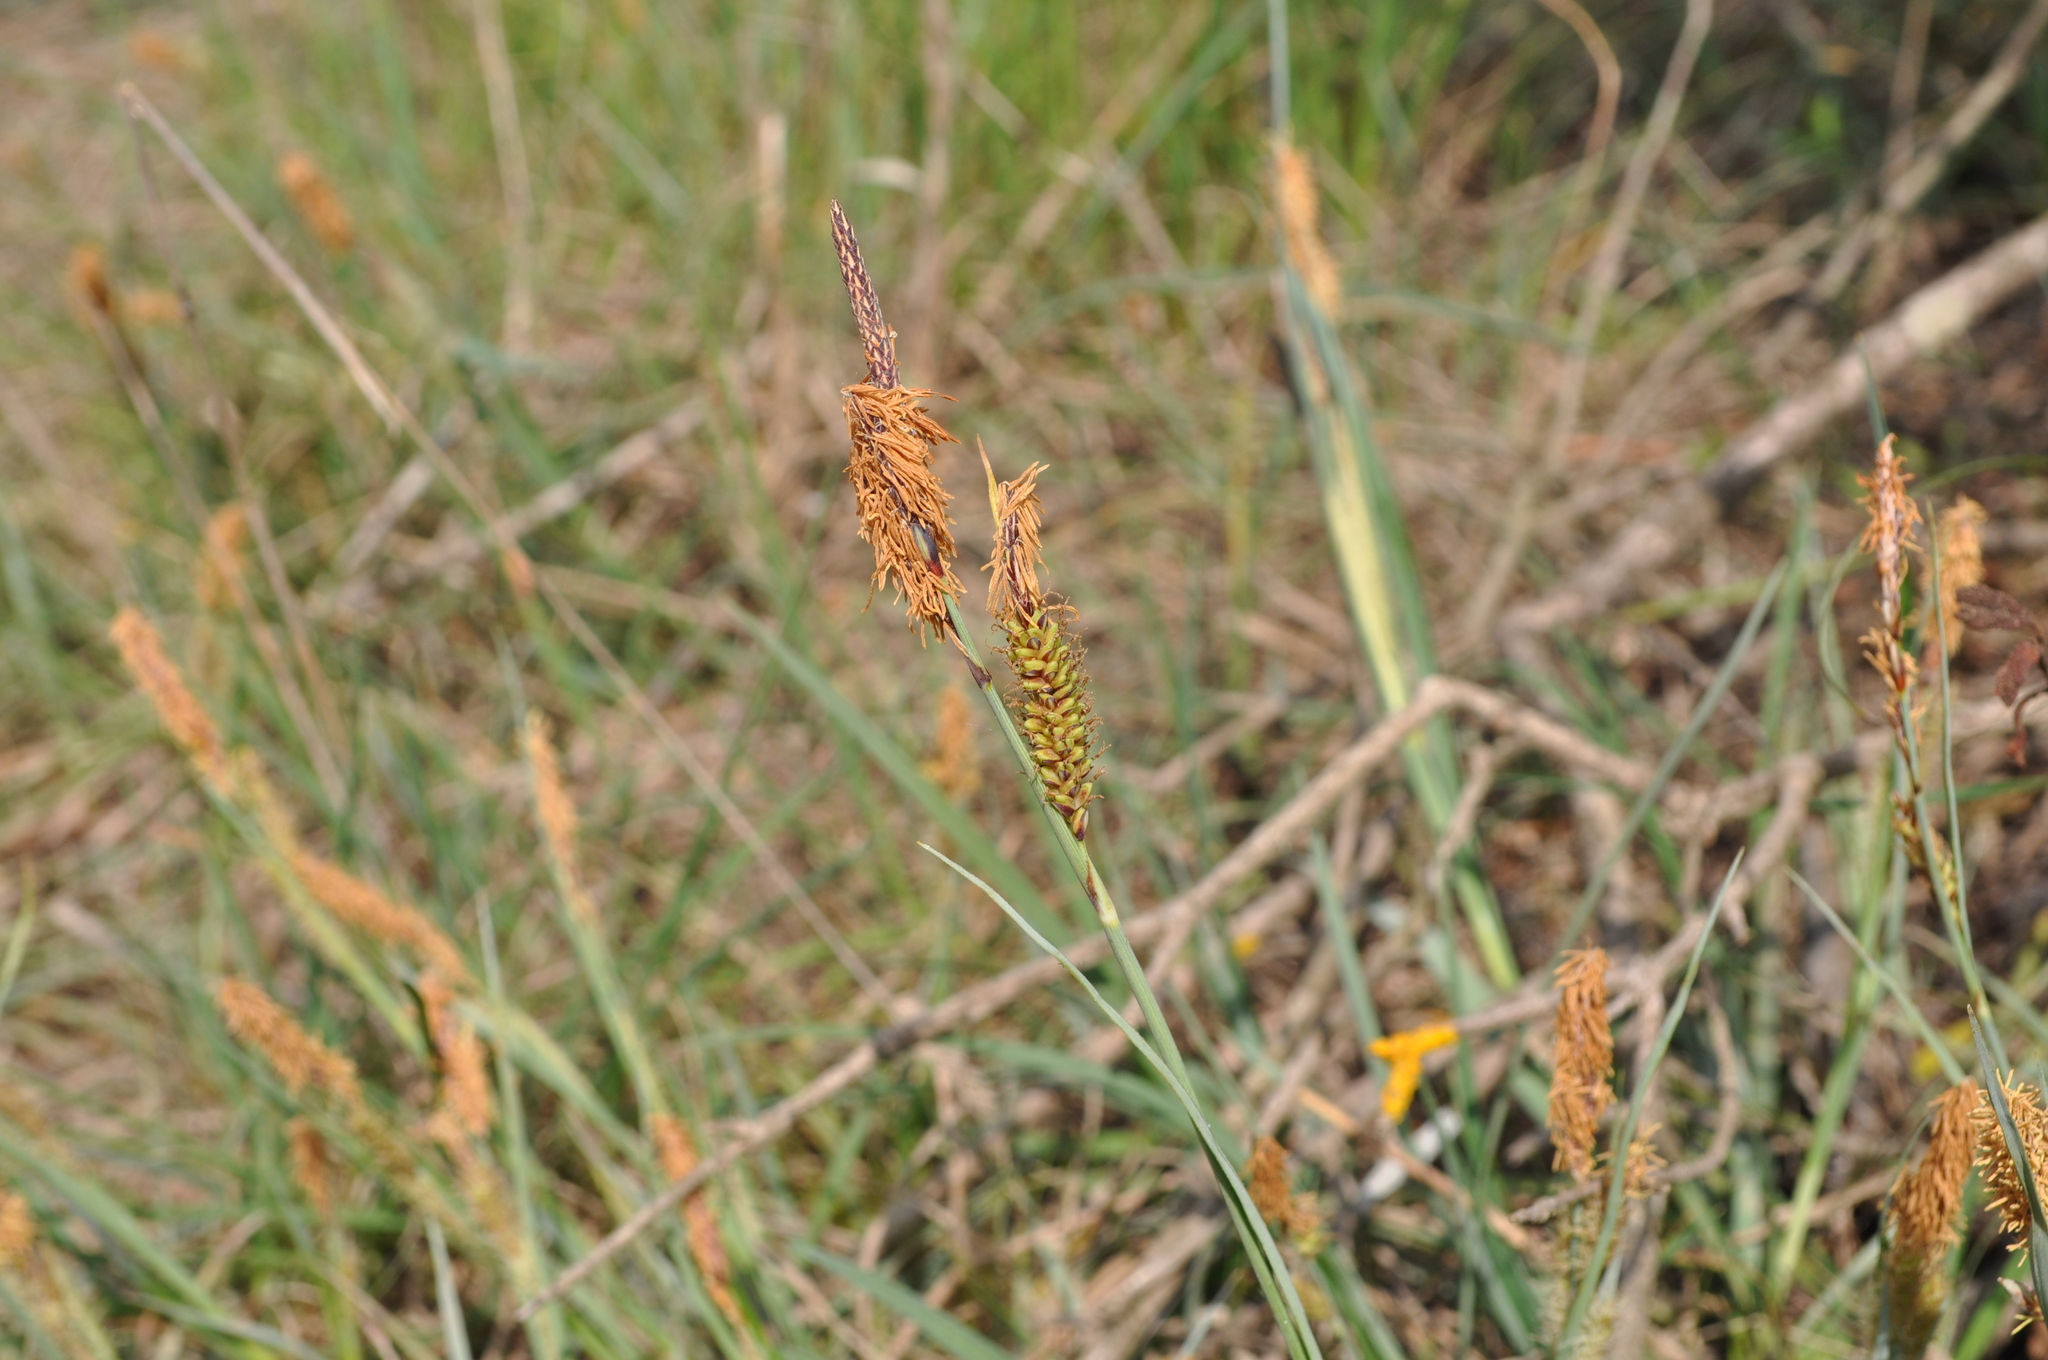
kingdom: Plantae
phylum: Tracheophyta
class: Liliopsida
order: Poales
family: Cyperaceae
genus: Carex
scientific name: Carex flacca
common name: Glaucous sedge
